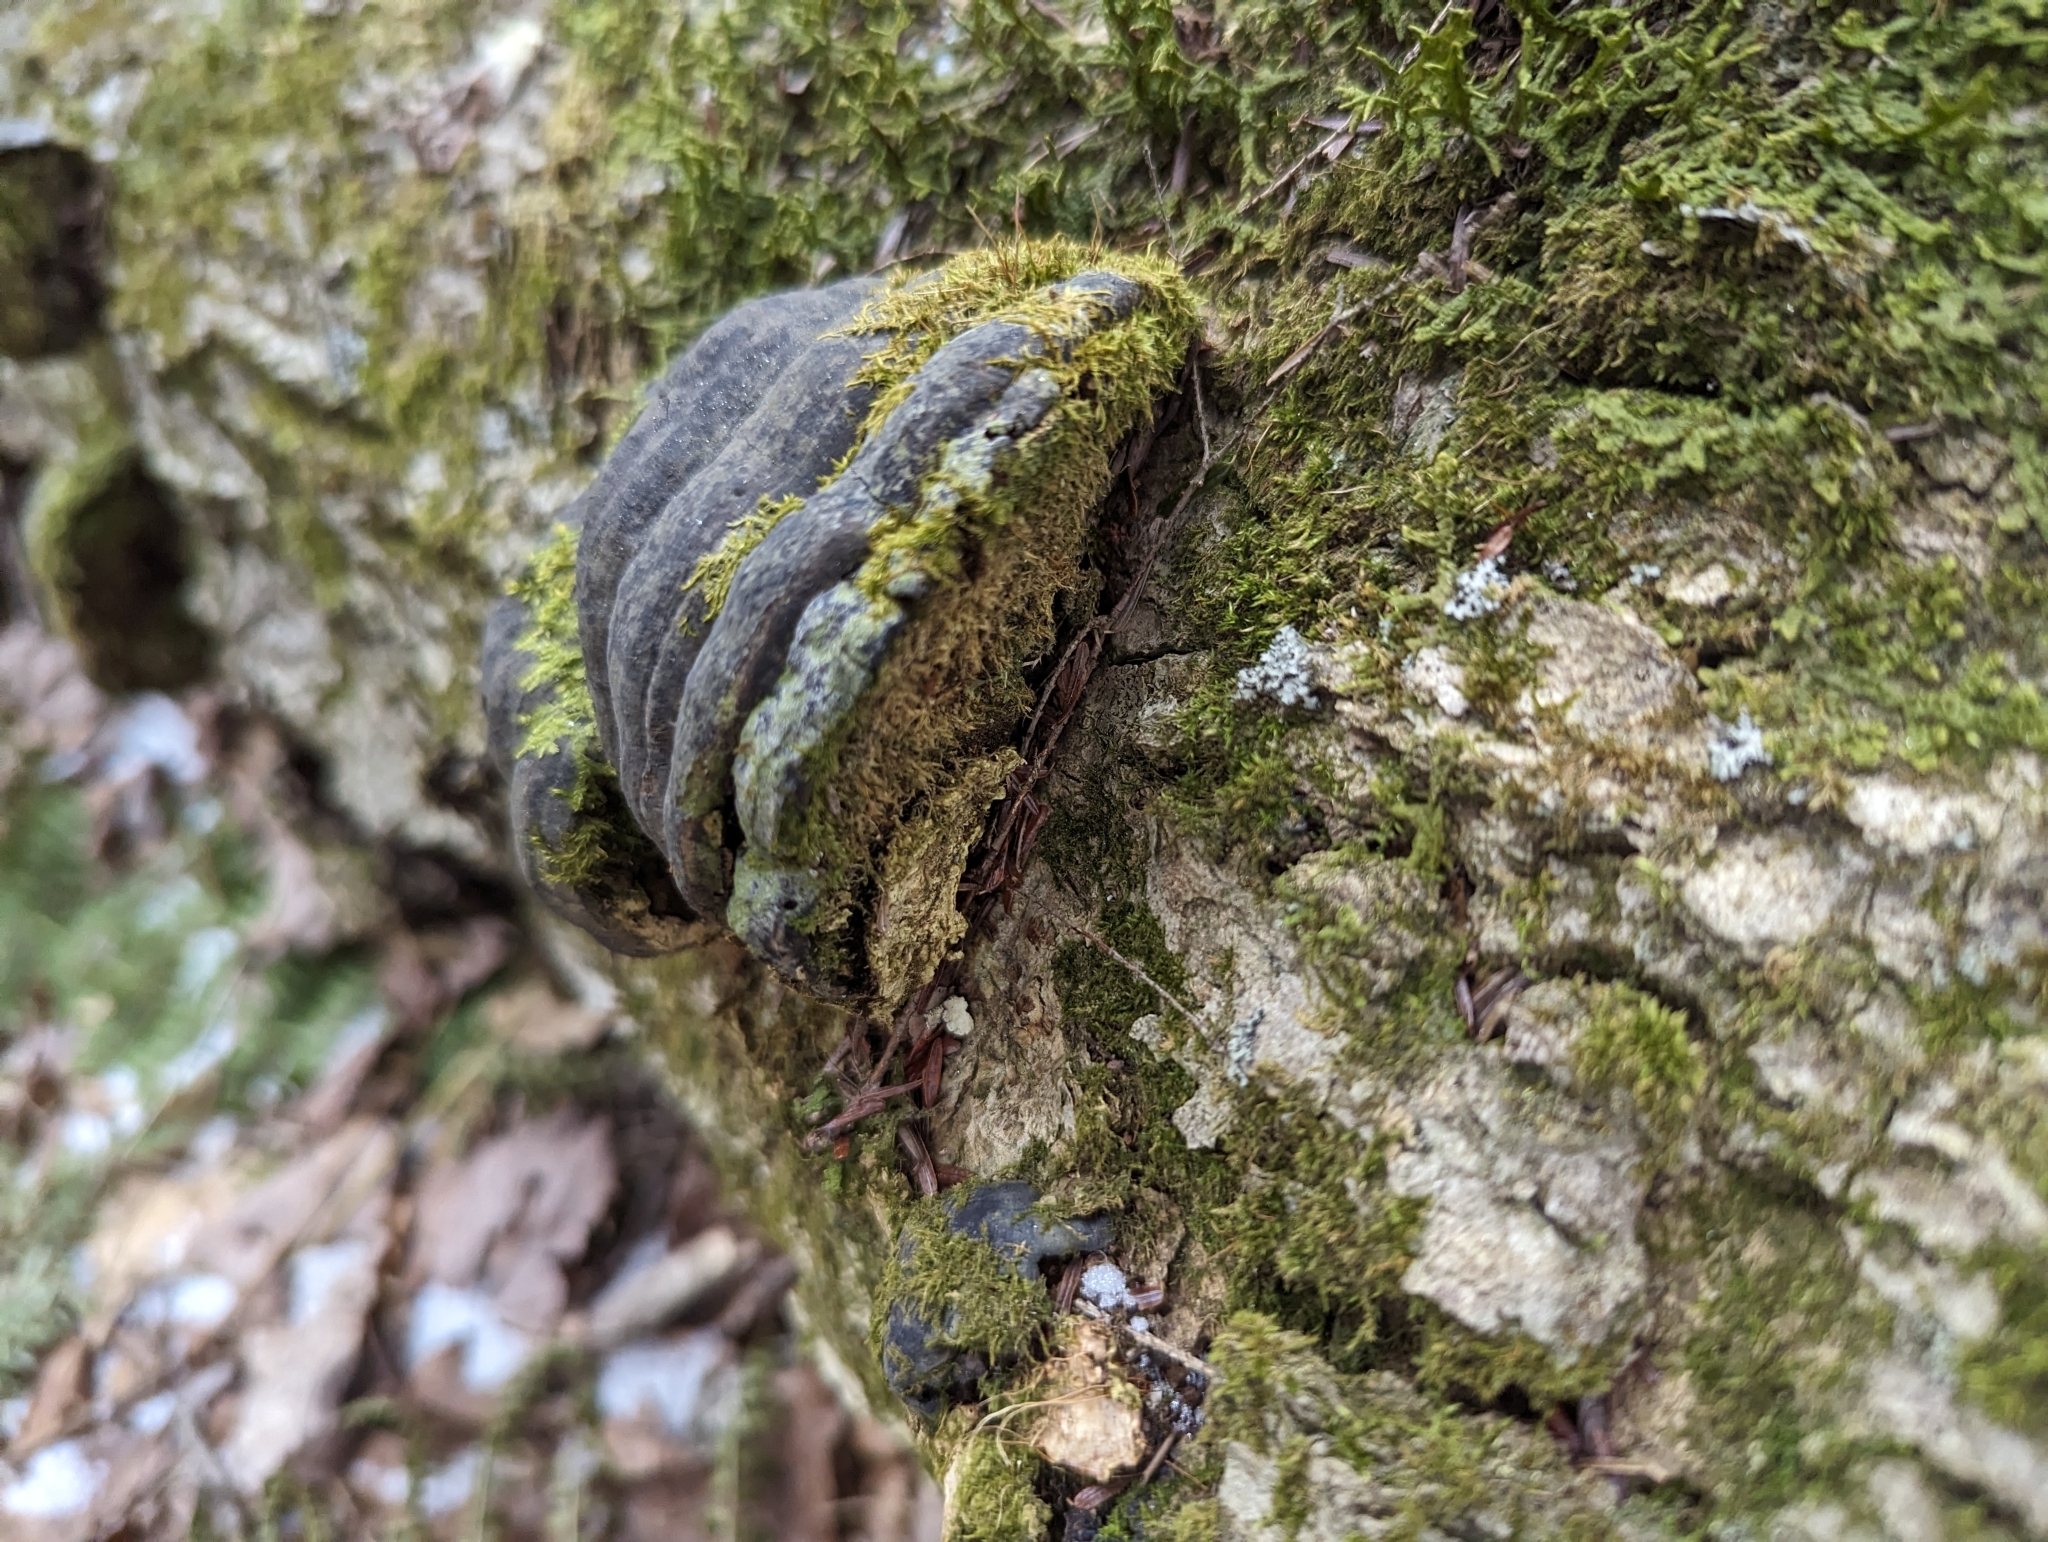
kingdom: Fungi
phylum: Basidiomycota
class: Agaricomycetes
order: Polyporales
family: Polyporaceae
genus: Fomes
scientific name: Fomes fomentarius
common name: Hoof fungus
